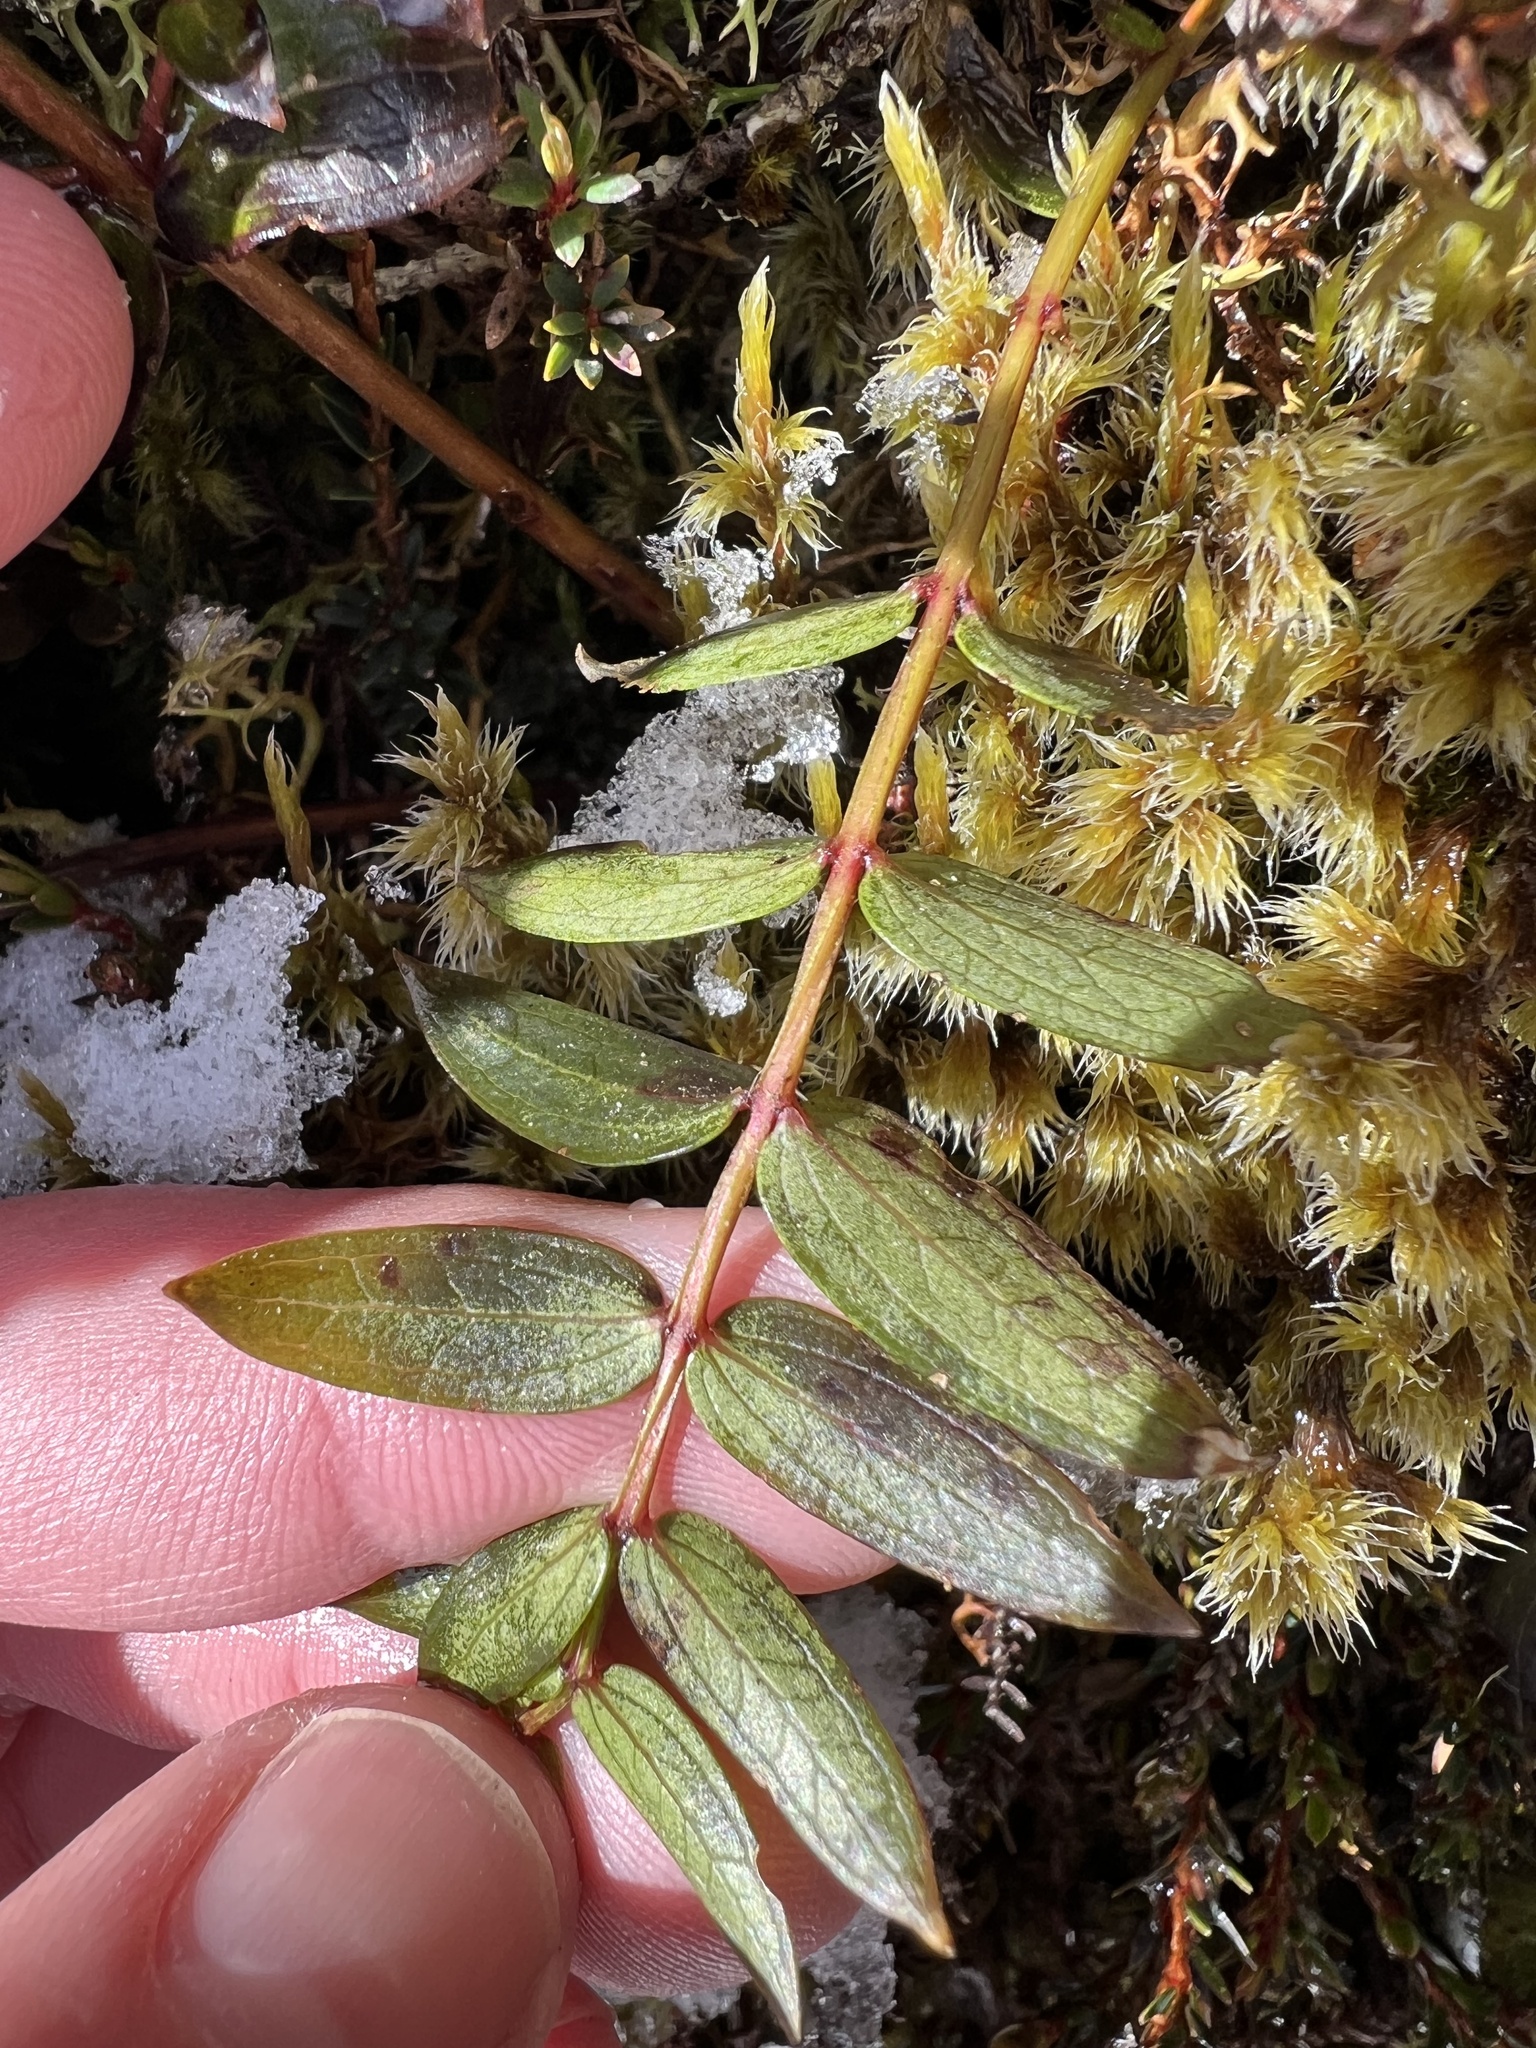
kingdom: Plantae
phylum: Tracheophyta
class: Magnoliopsida
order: Cucurbitales
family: Coriariaceae
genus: Coriaria
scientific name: Coriaria pteridoides
